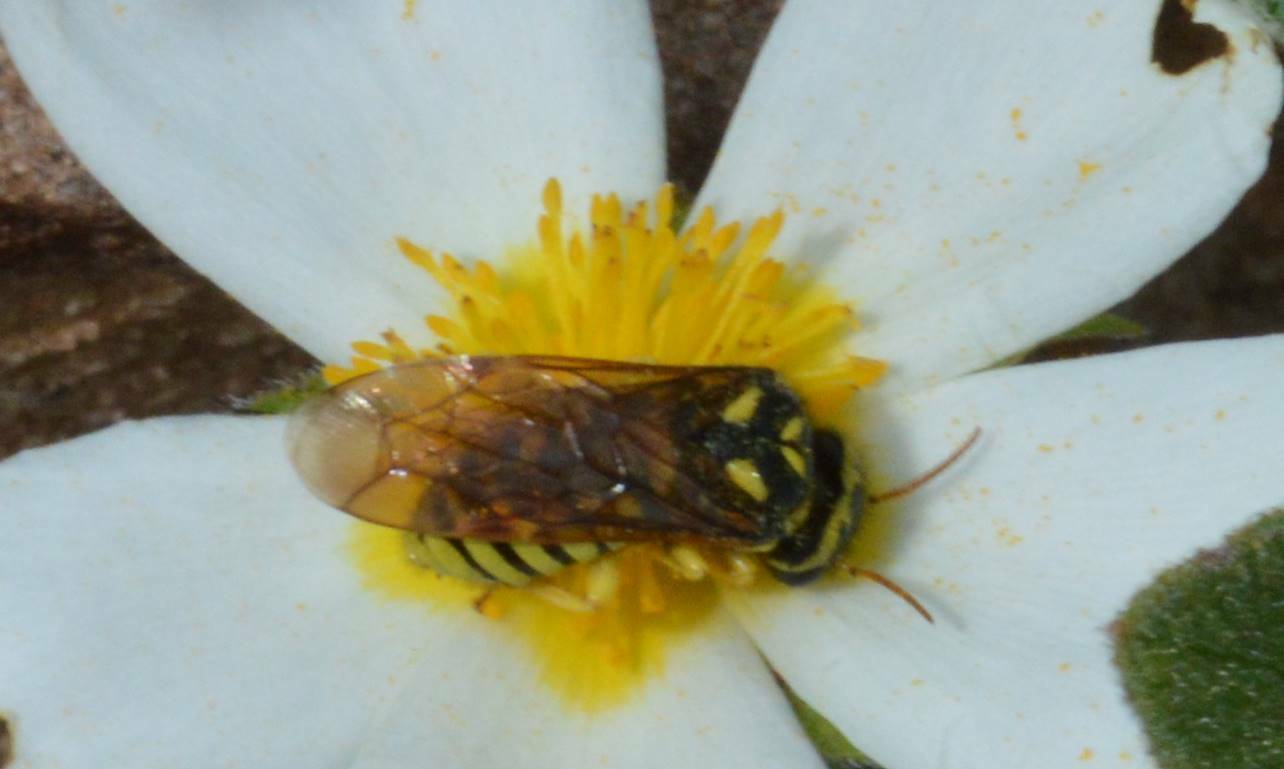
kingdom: Animalia
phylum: Arthropoda
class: Insecta
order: Hymenoptera
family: Megalodontesidae
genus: Megalodontes
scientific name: Megalodontes lacourti
